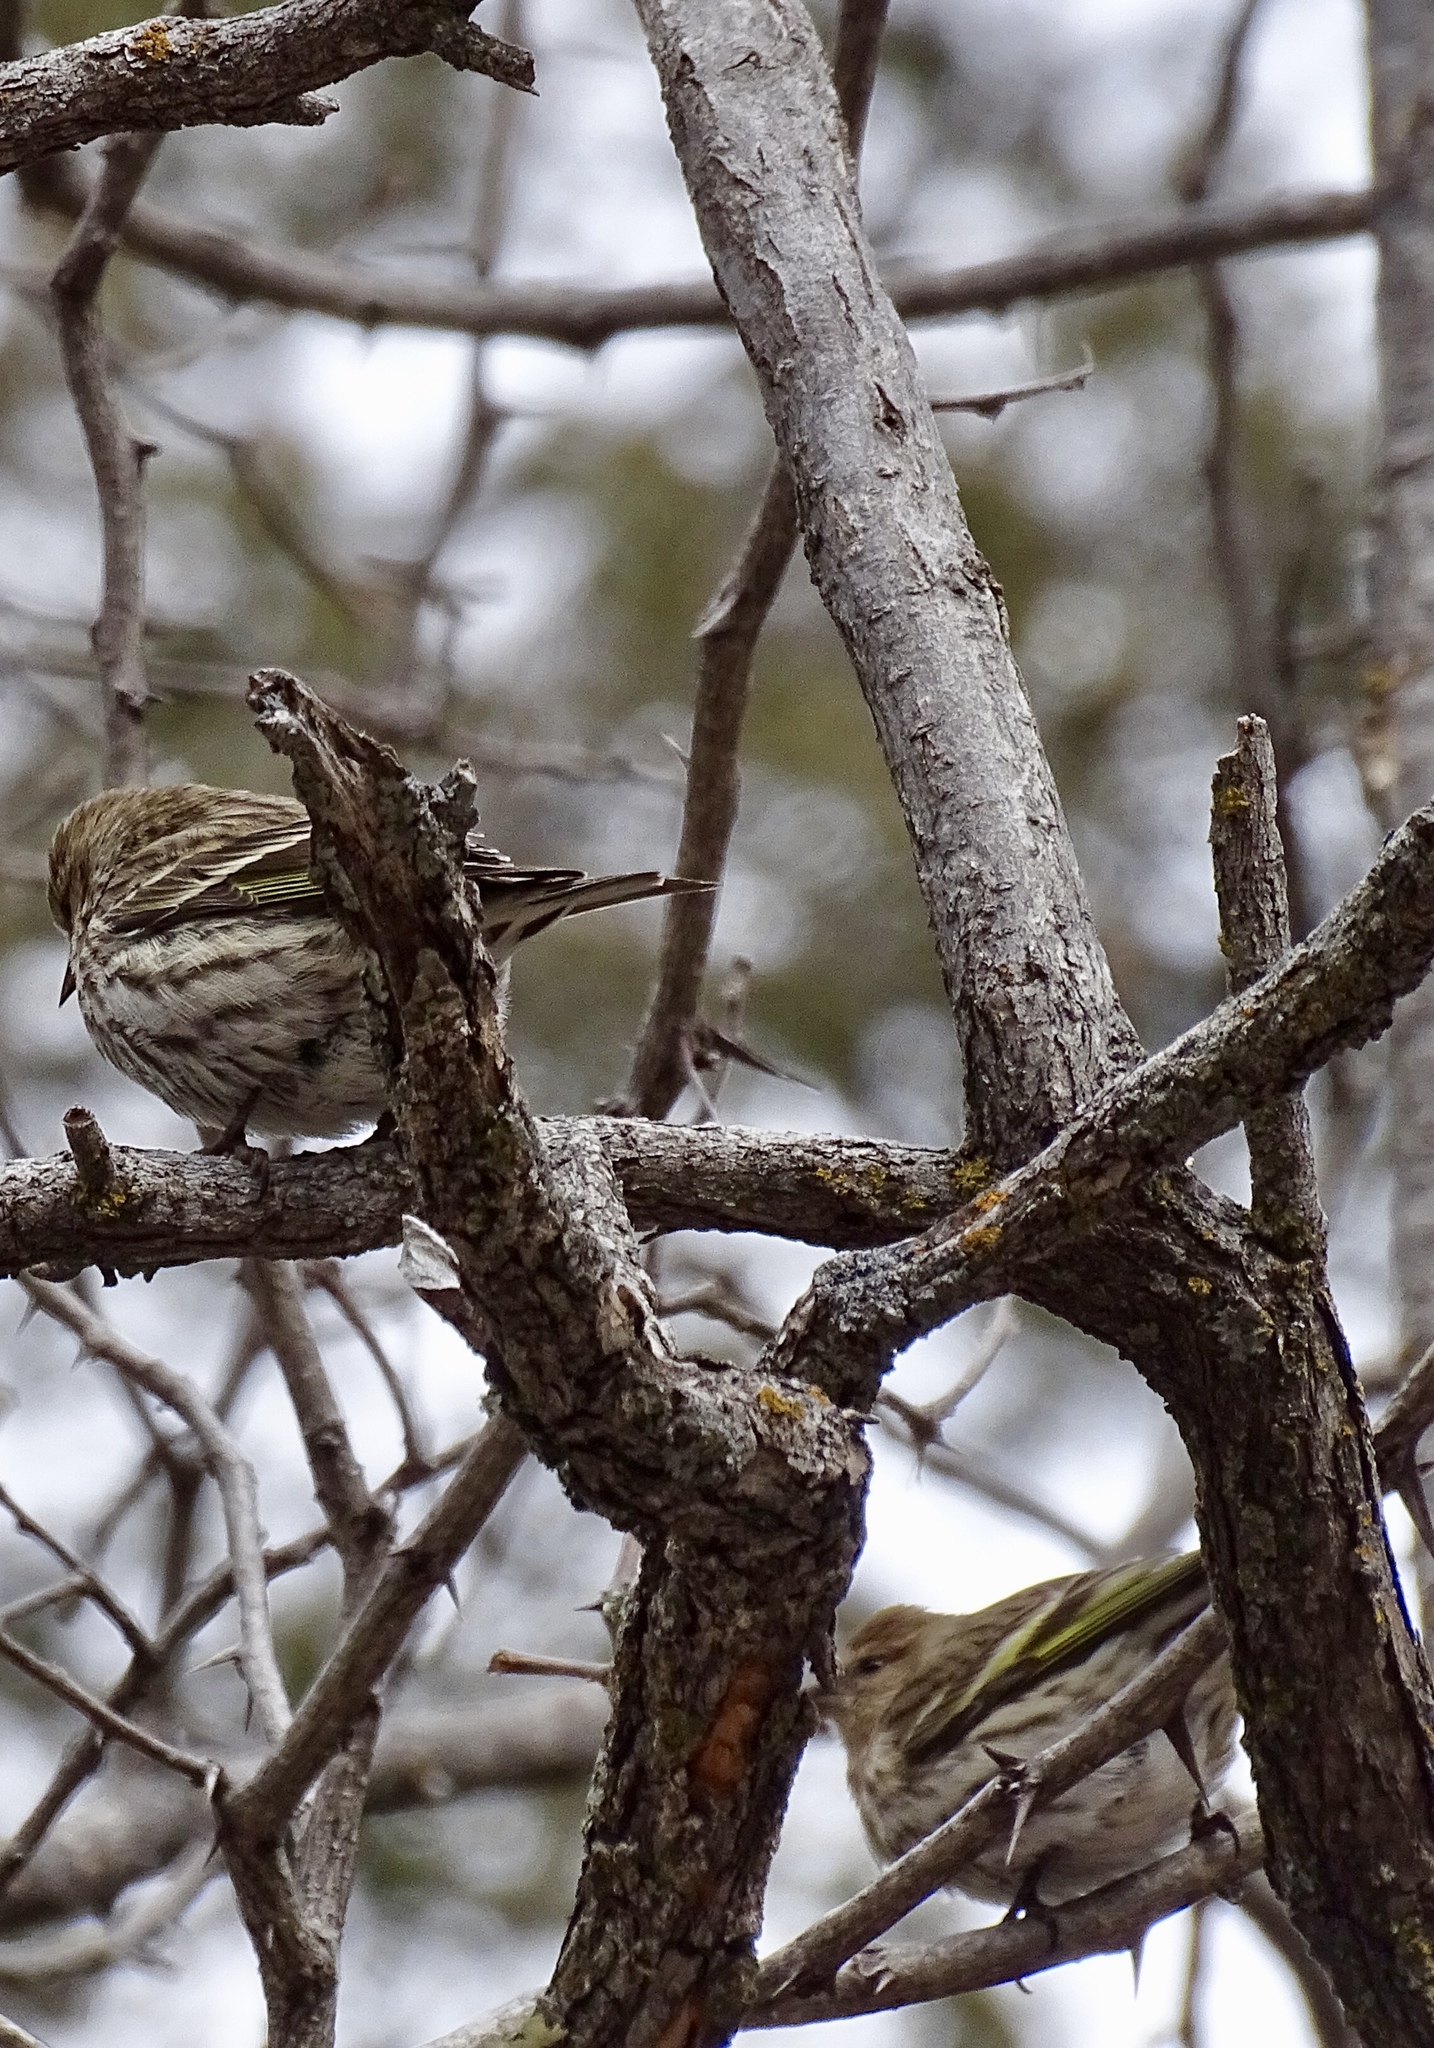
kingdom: Animalia
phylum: Chordata
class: Aves
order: Passeriformes
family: Fringillidae
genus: Spinus
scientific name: Spinus pinus
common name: Pine siskin
